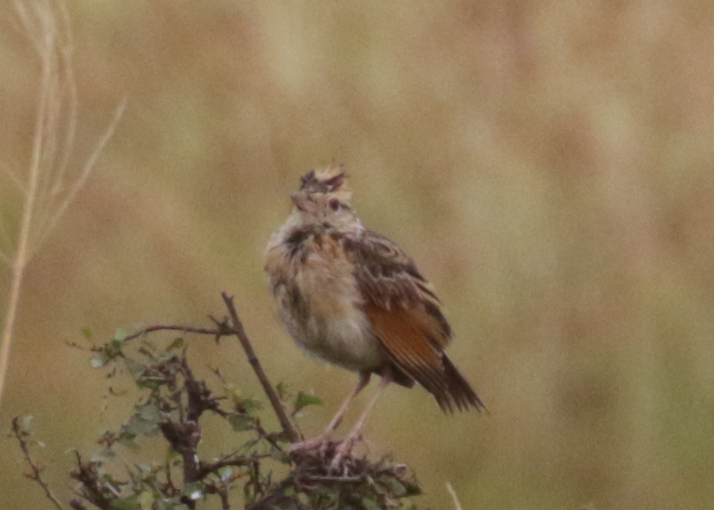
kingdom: Animalia
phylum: Chordata
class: Aves
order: Passeriformes
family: Alaudidae
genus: Mirafra
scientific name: Mirafra africana
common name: Rufous-naped lark
